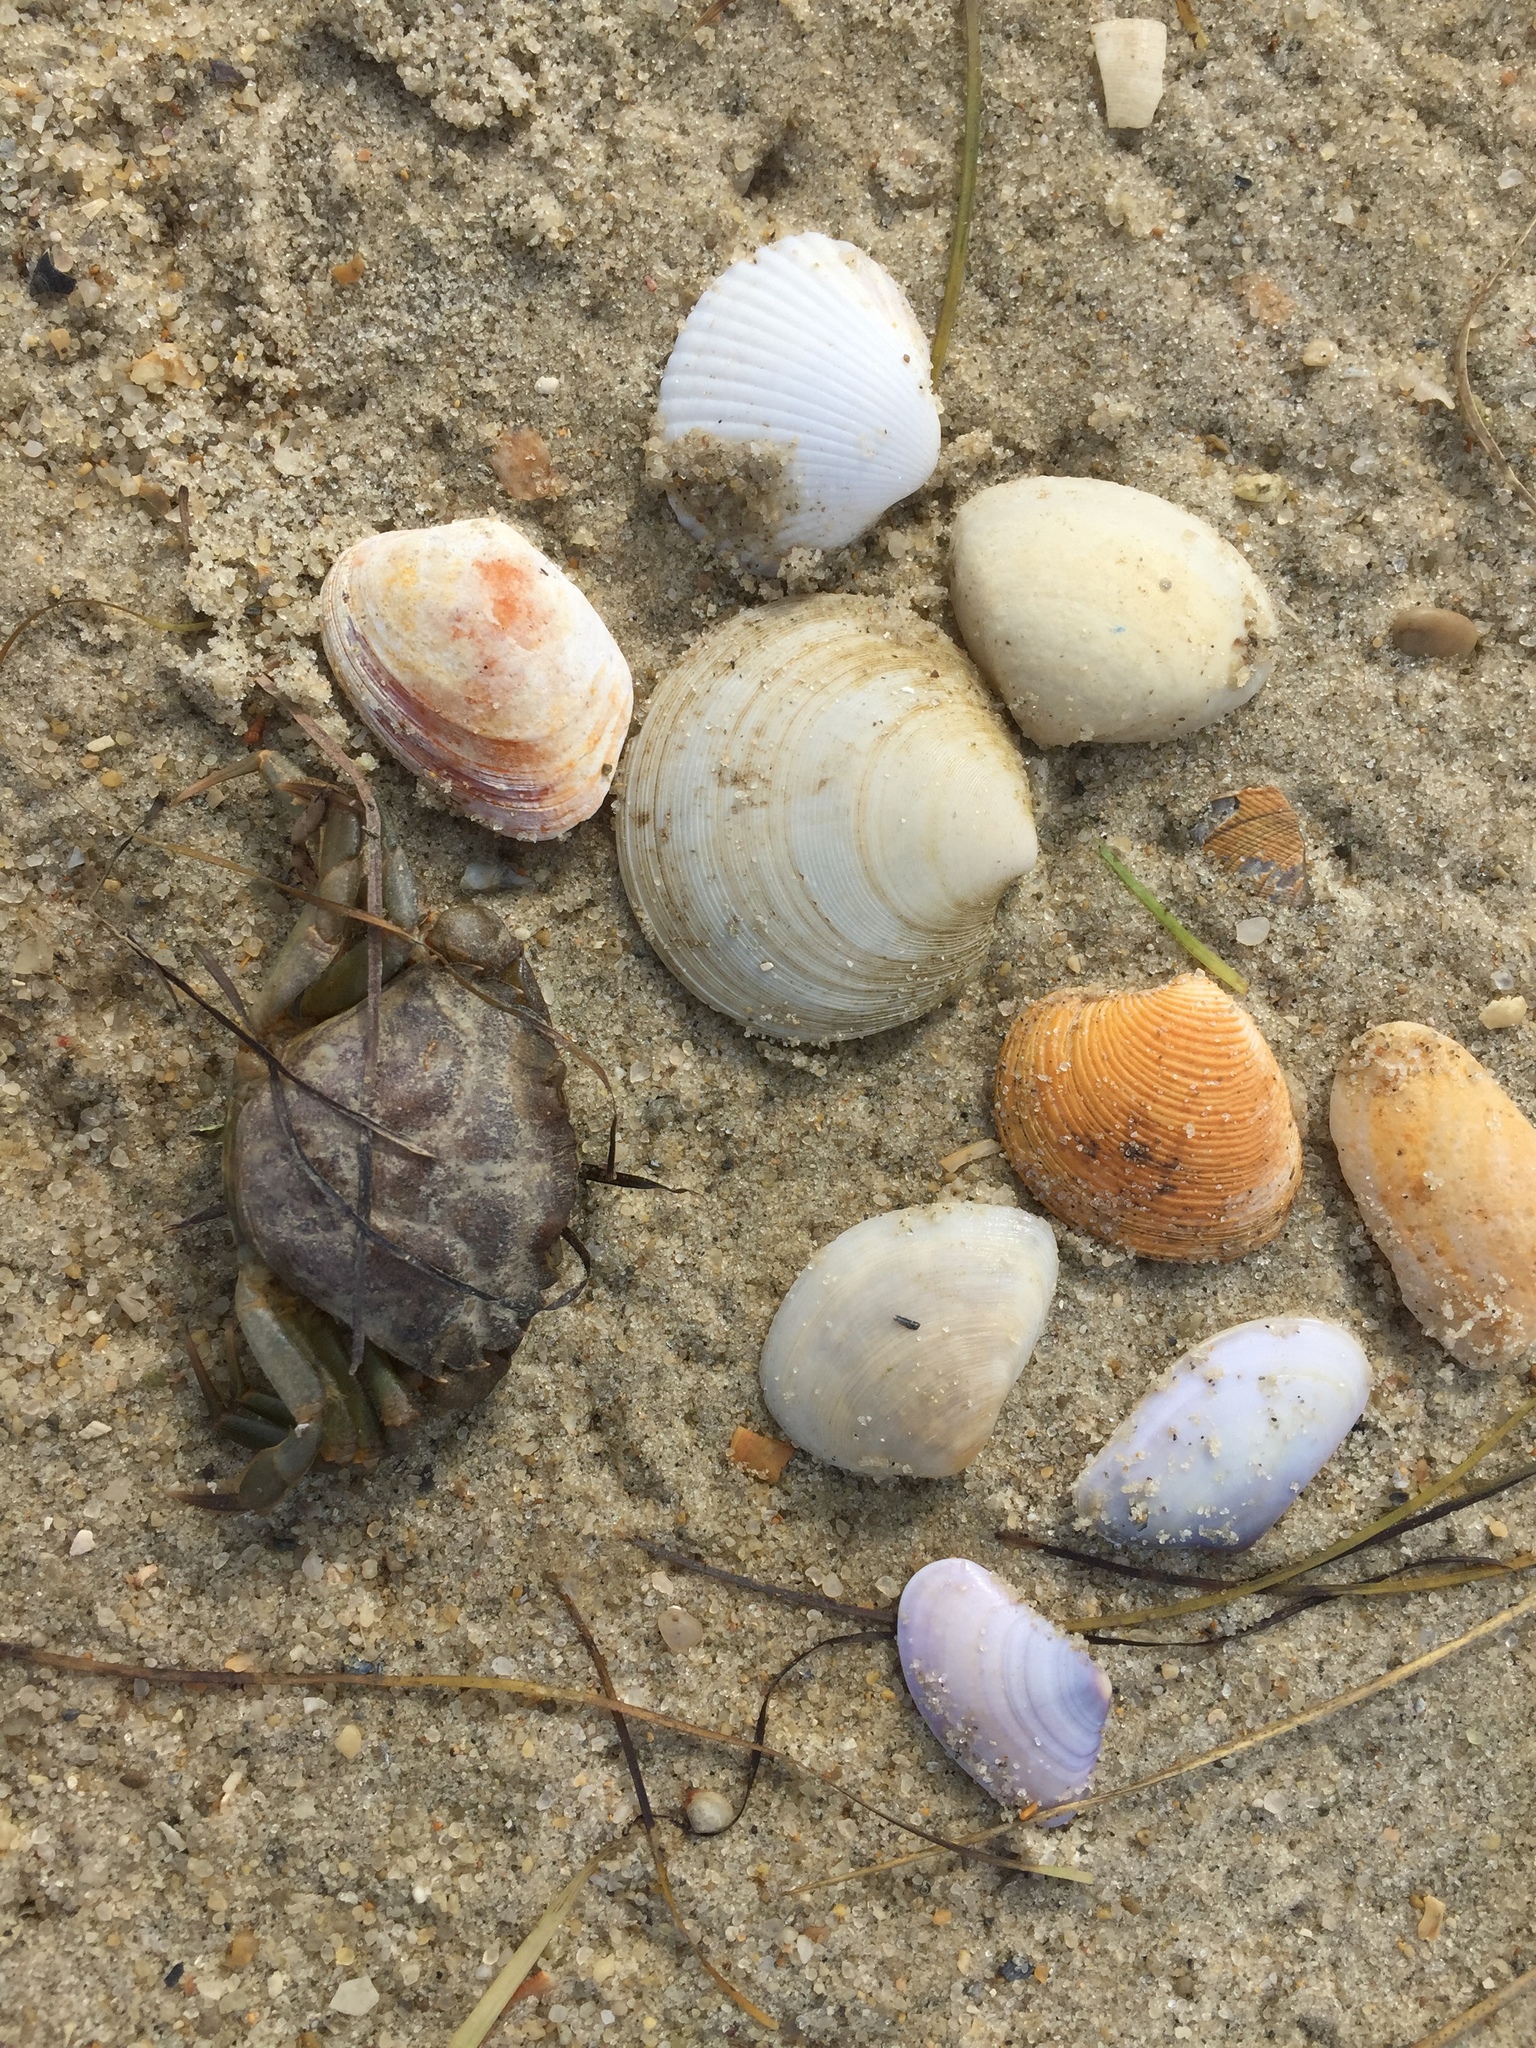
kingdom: Animalia
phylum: Mollusca
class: Bivalvia
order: Cardiida
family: Cardiidae
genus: Cerastoderma
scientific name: Cerastoderma edule
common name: Common cockle
